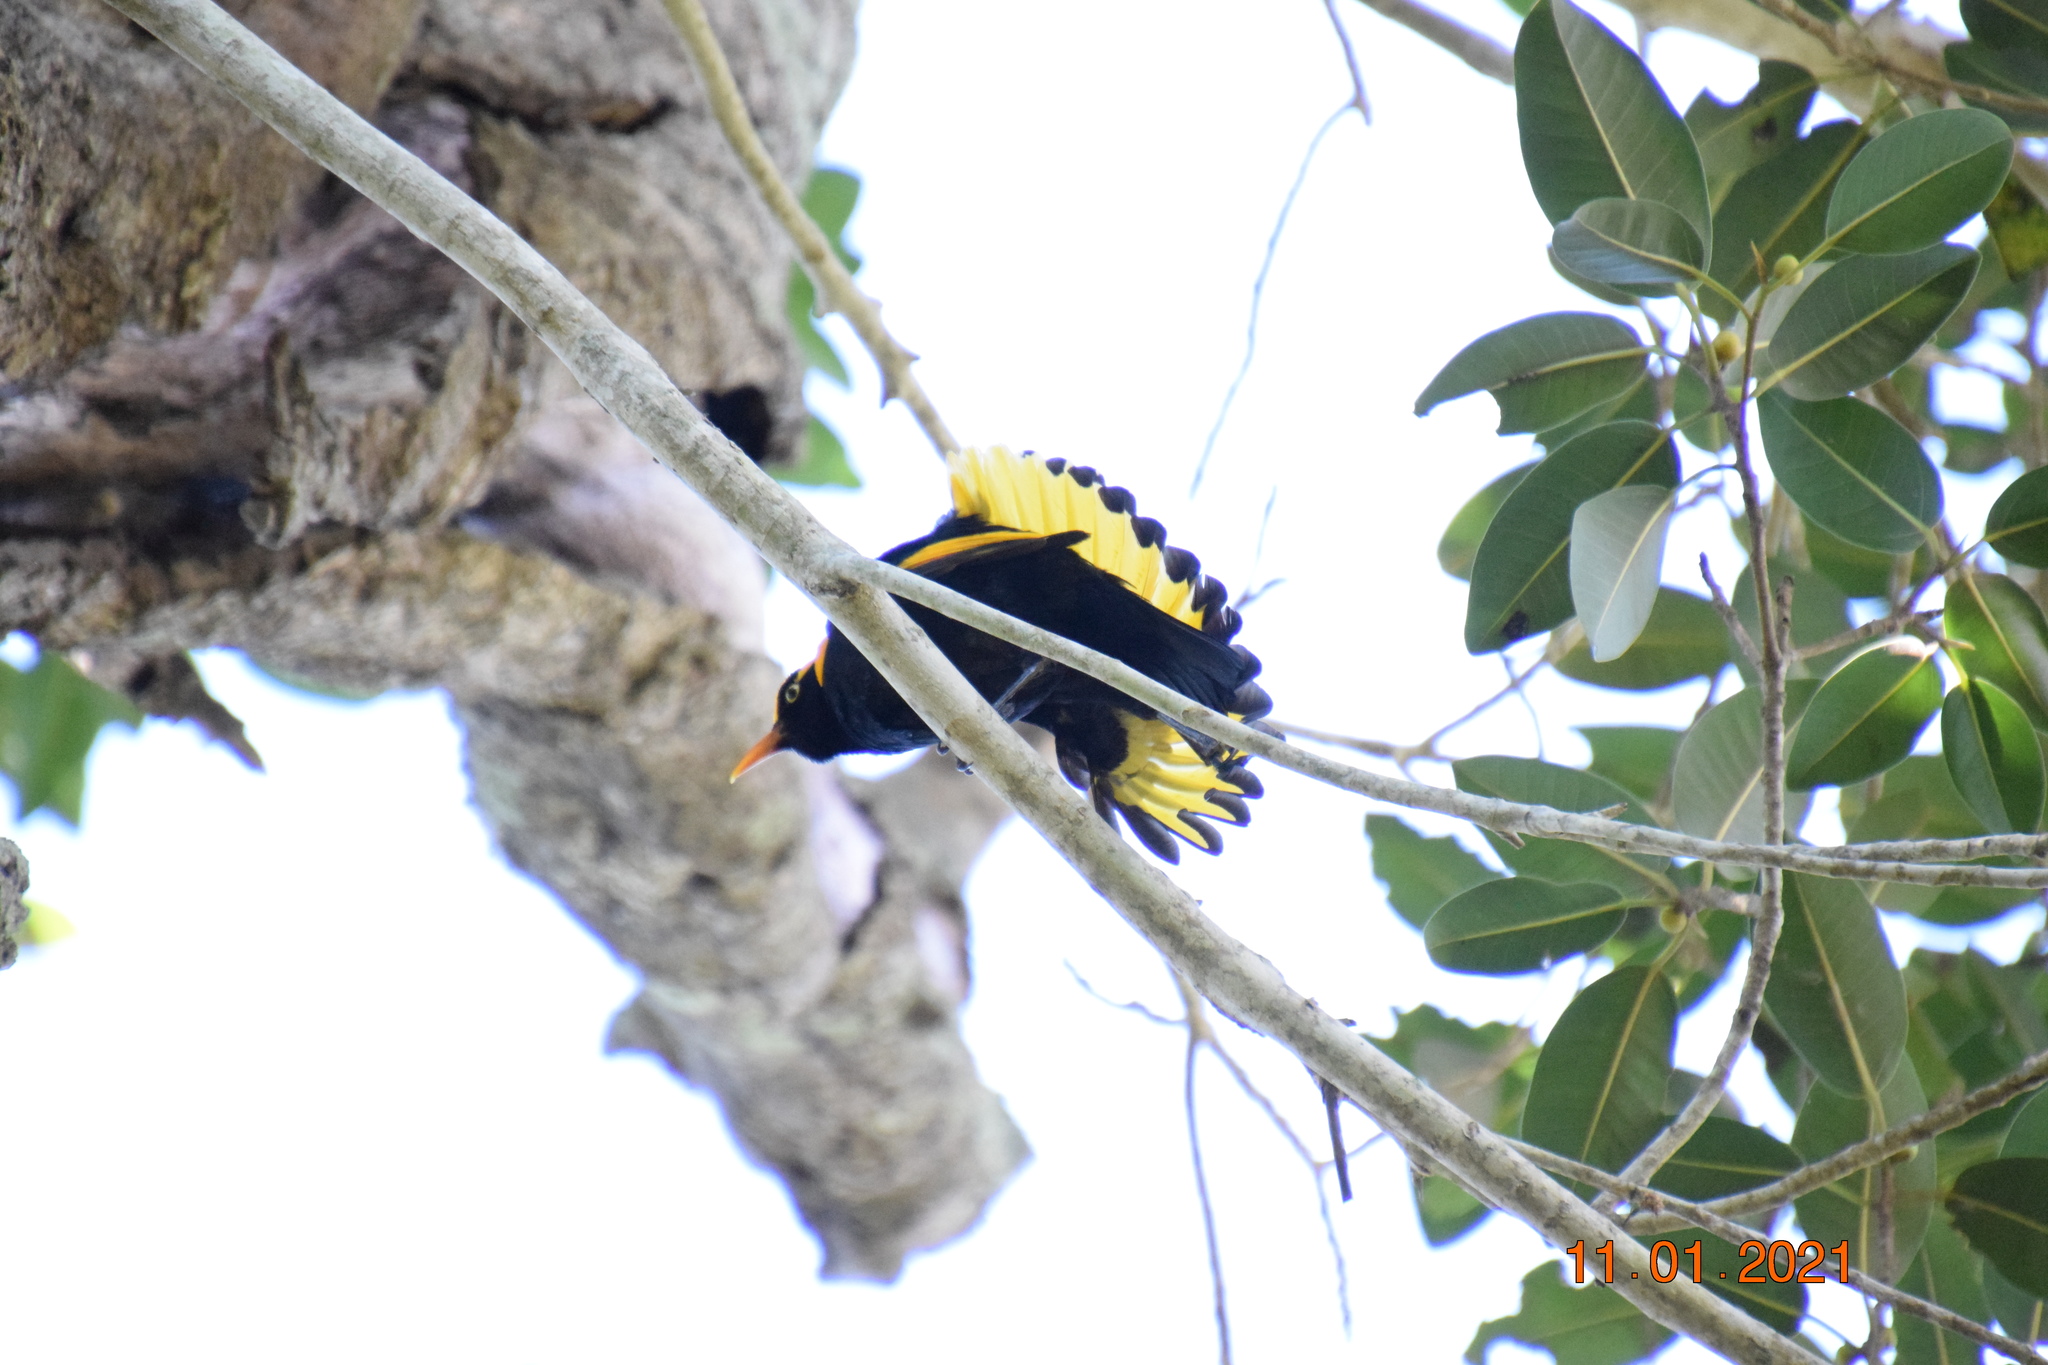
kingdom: Animalia
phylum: Chordata
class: Aves
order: Passeriformes
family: Ptilonorhynchidae
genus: Sericulus
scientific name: Sericulus chrysocephalus
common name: Regent bowerbird
